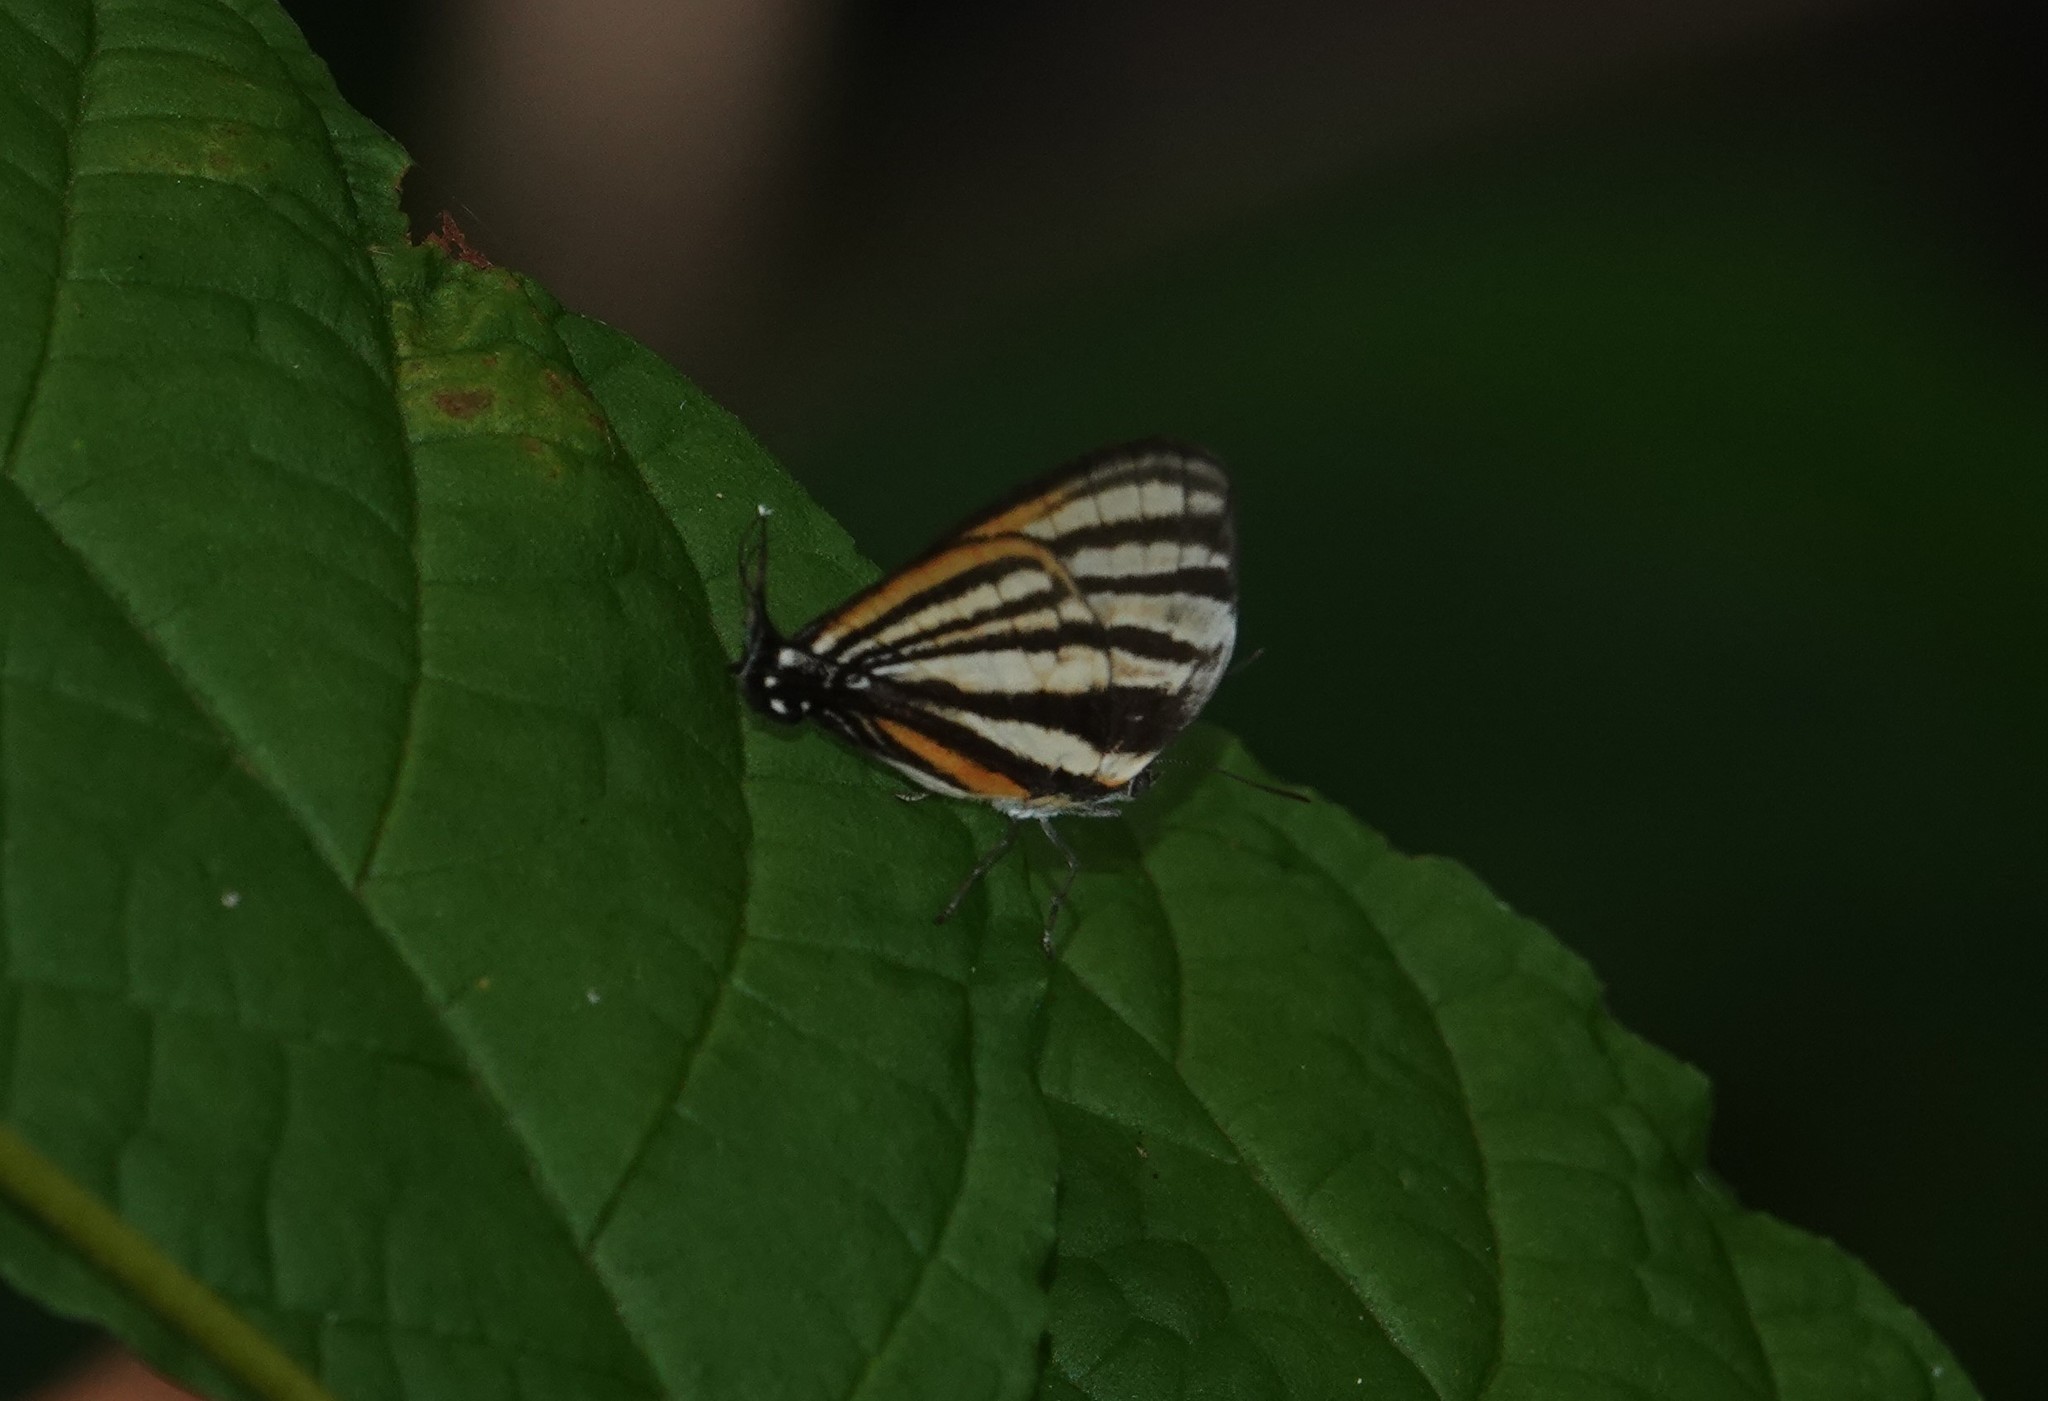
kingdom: Animalia
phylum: Arthropoda
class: Insecta
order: Lepidoptera
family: Lycaenidae
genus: Thecla
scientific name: Thecla aetolus
